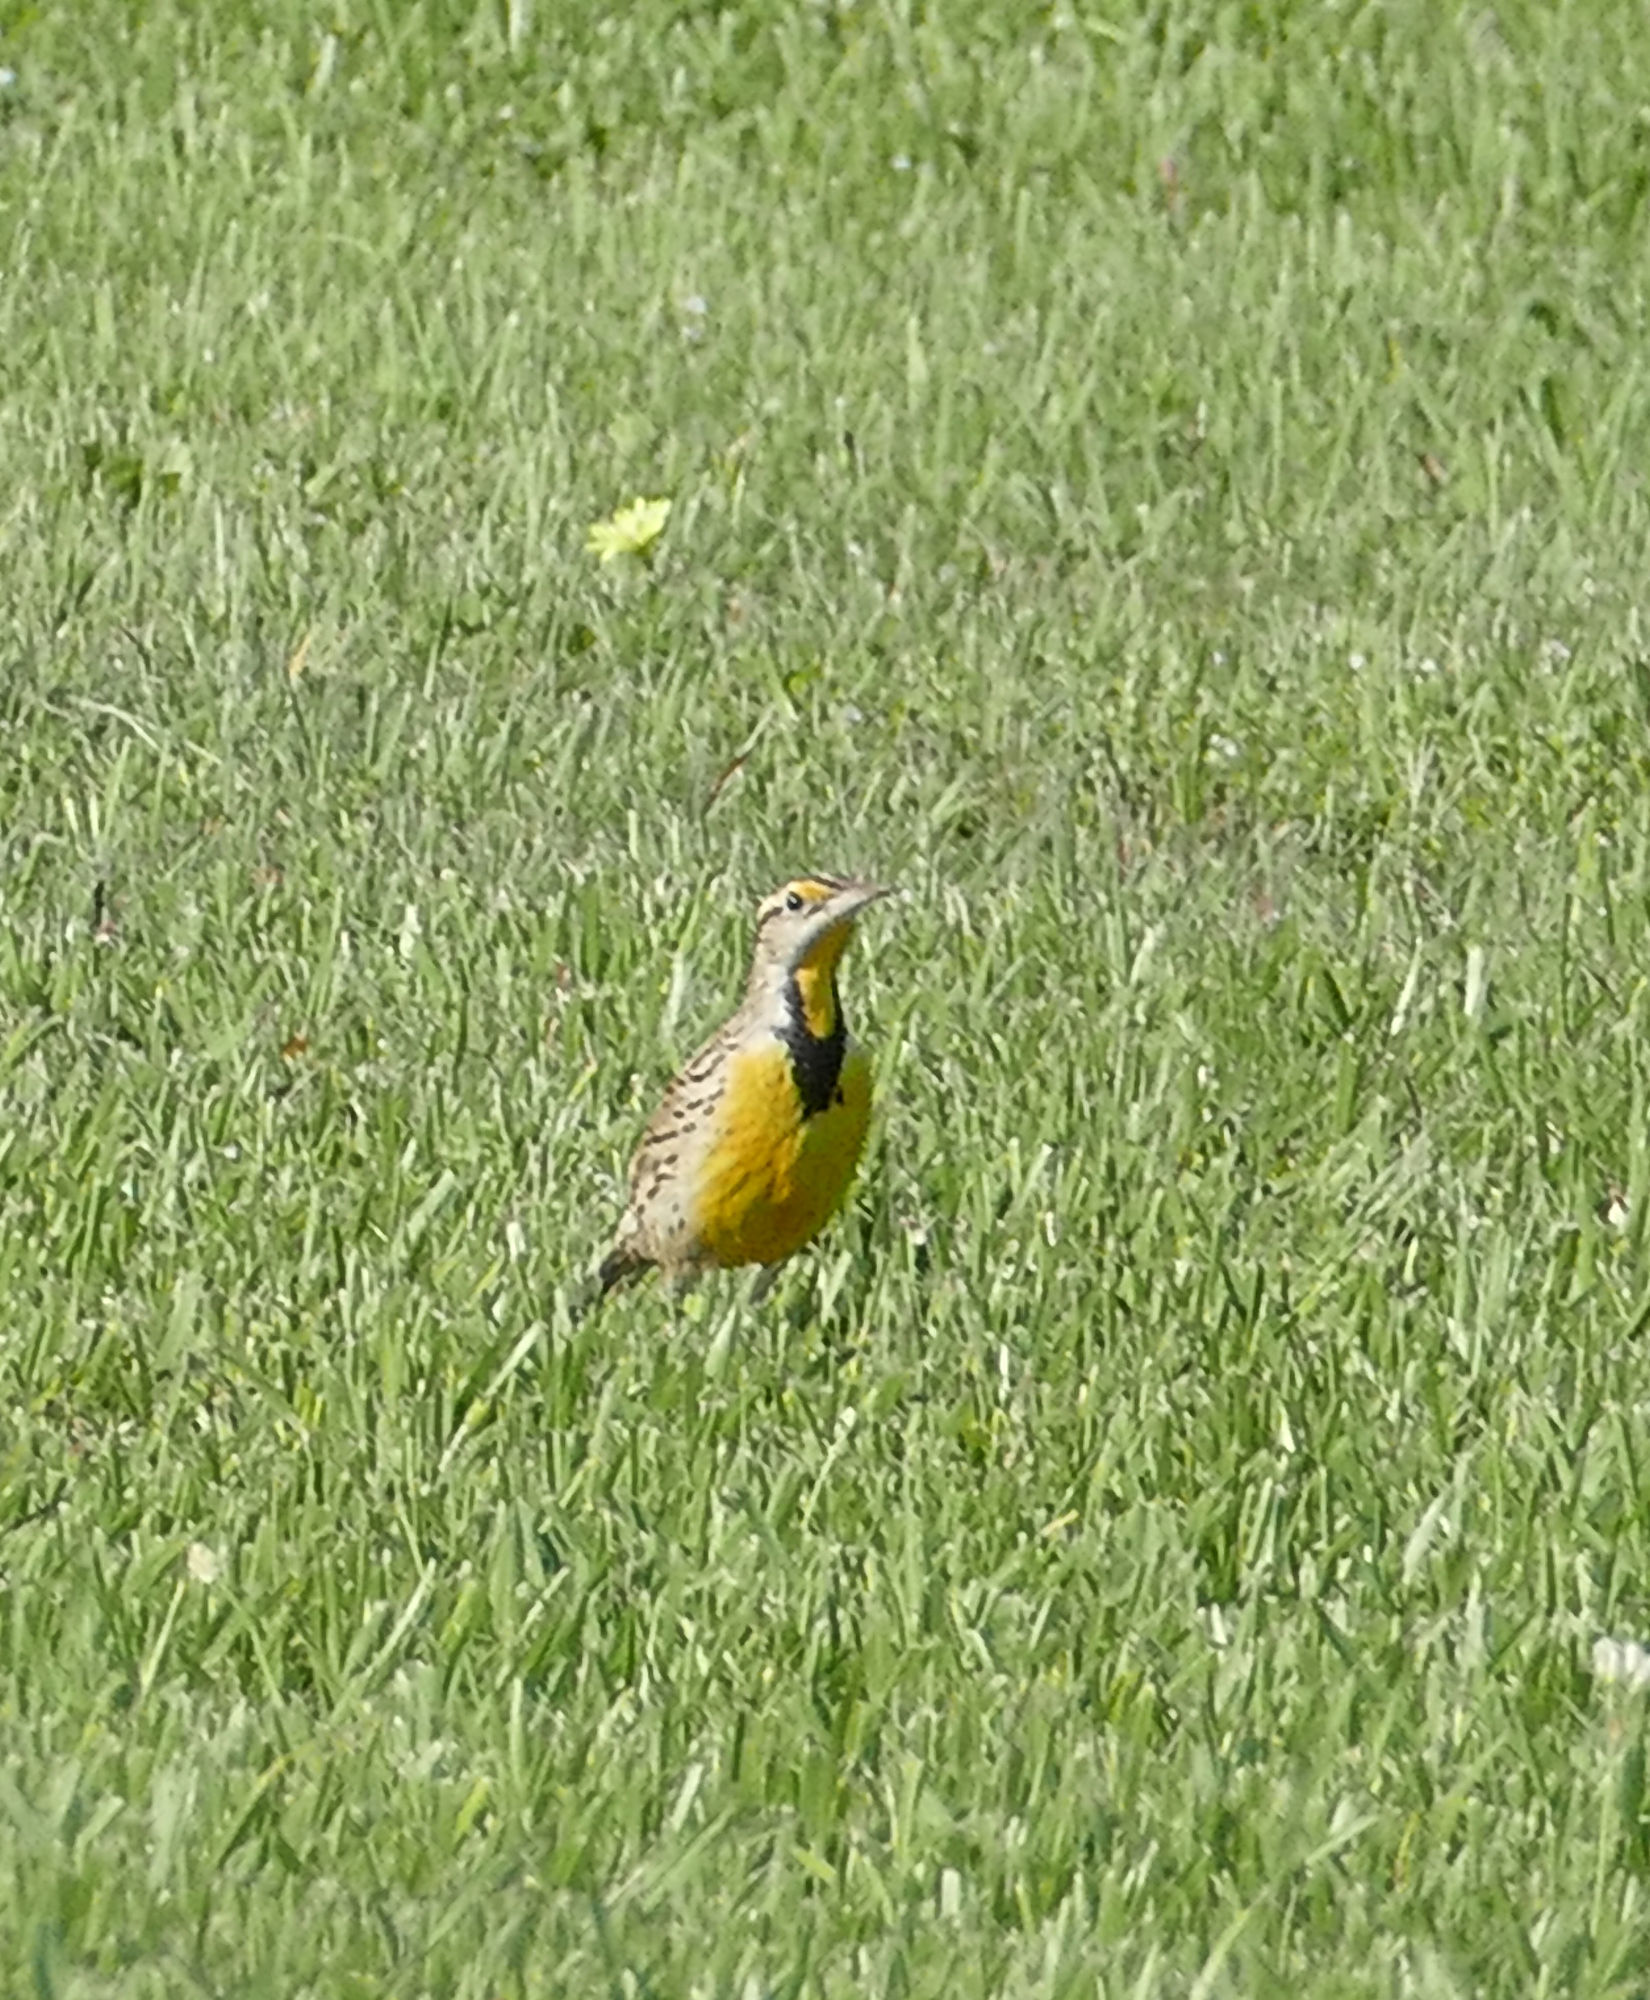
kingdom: Animalia
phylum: Chordata
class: Aves
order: Passeriformes
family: Icteridae
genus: Sturnella
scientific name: Sturnella magna
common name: Eastern meadowlark
